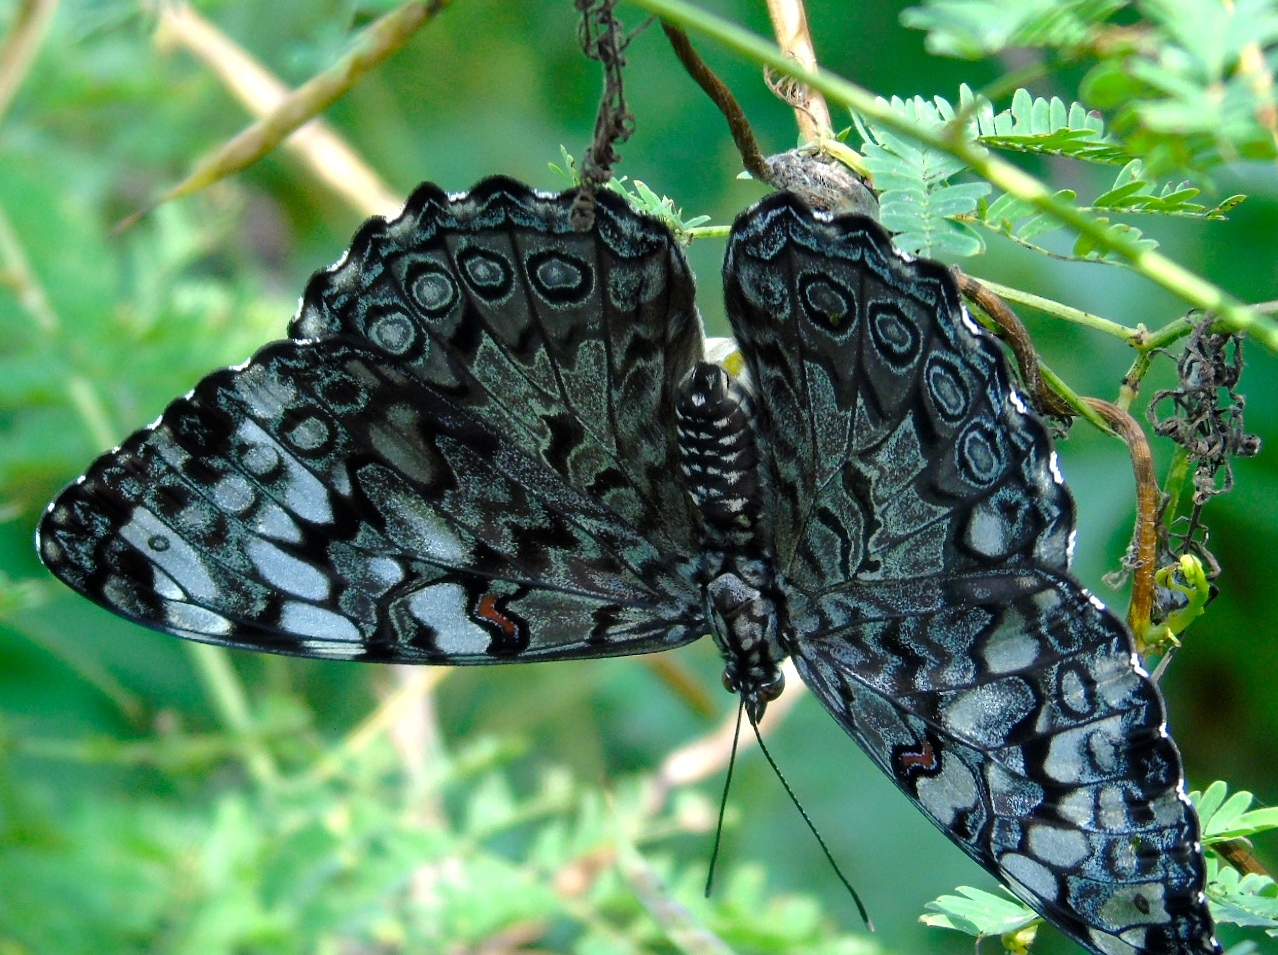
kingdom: Animalia
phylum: Arthropoda
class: Insecta
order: Lepidoptera
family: Nymphalidae
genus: Hamadryas
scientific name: Hamadryas guatemalena
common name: Guatemalan cracker
